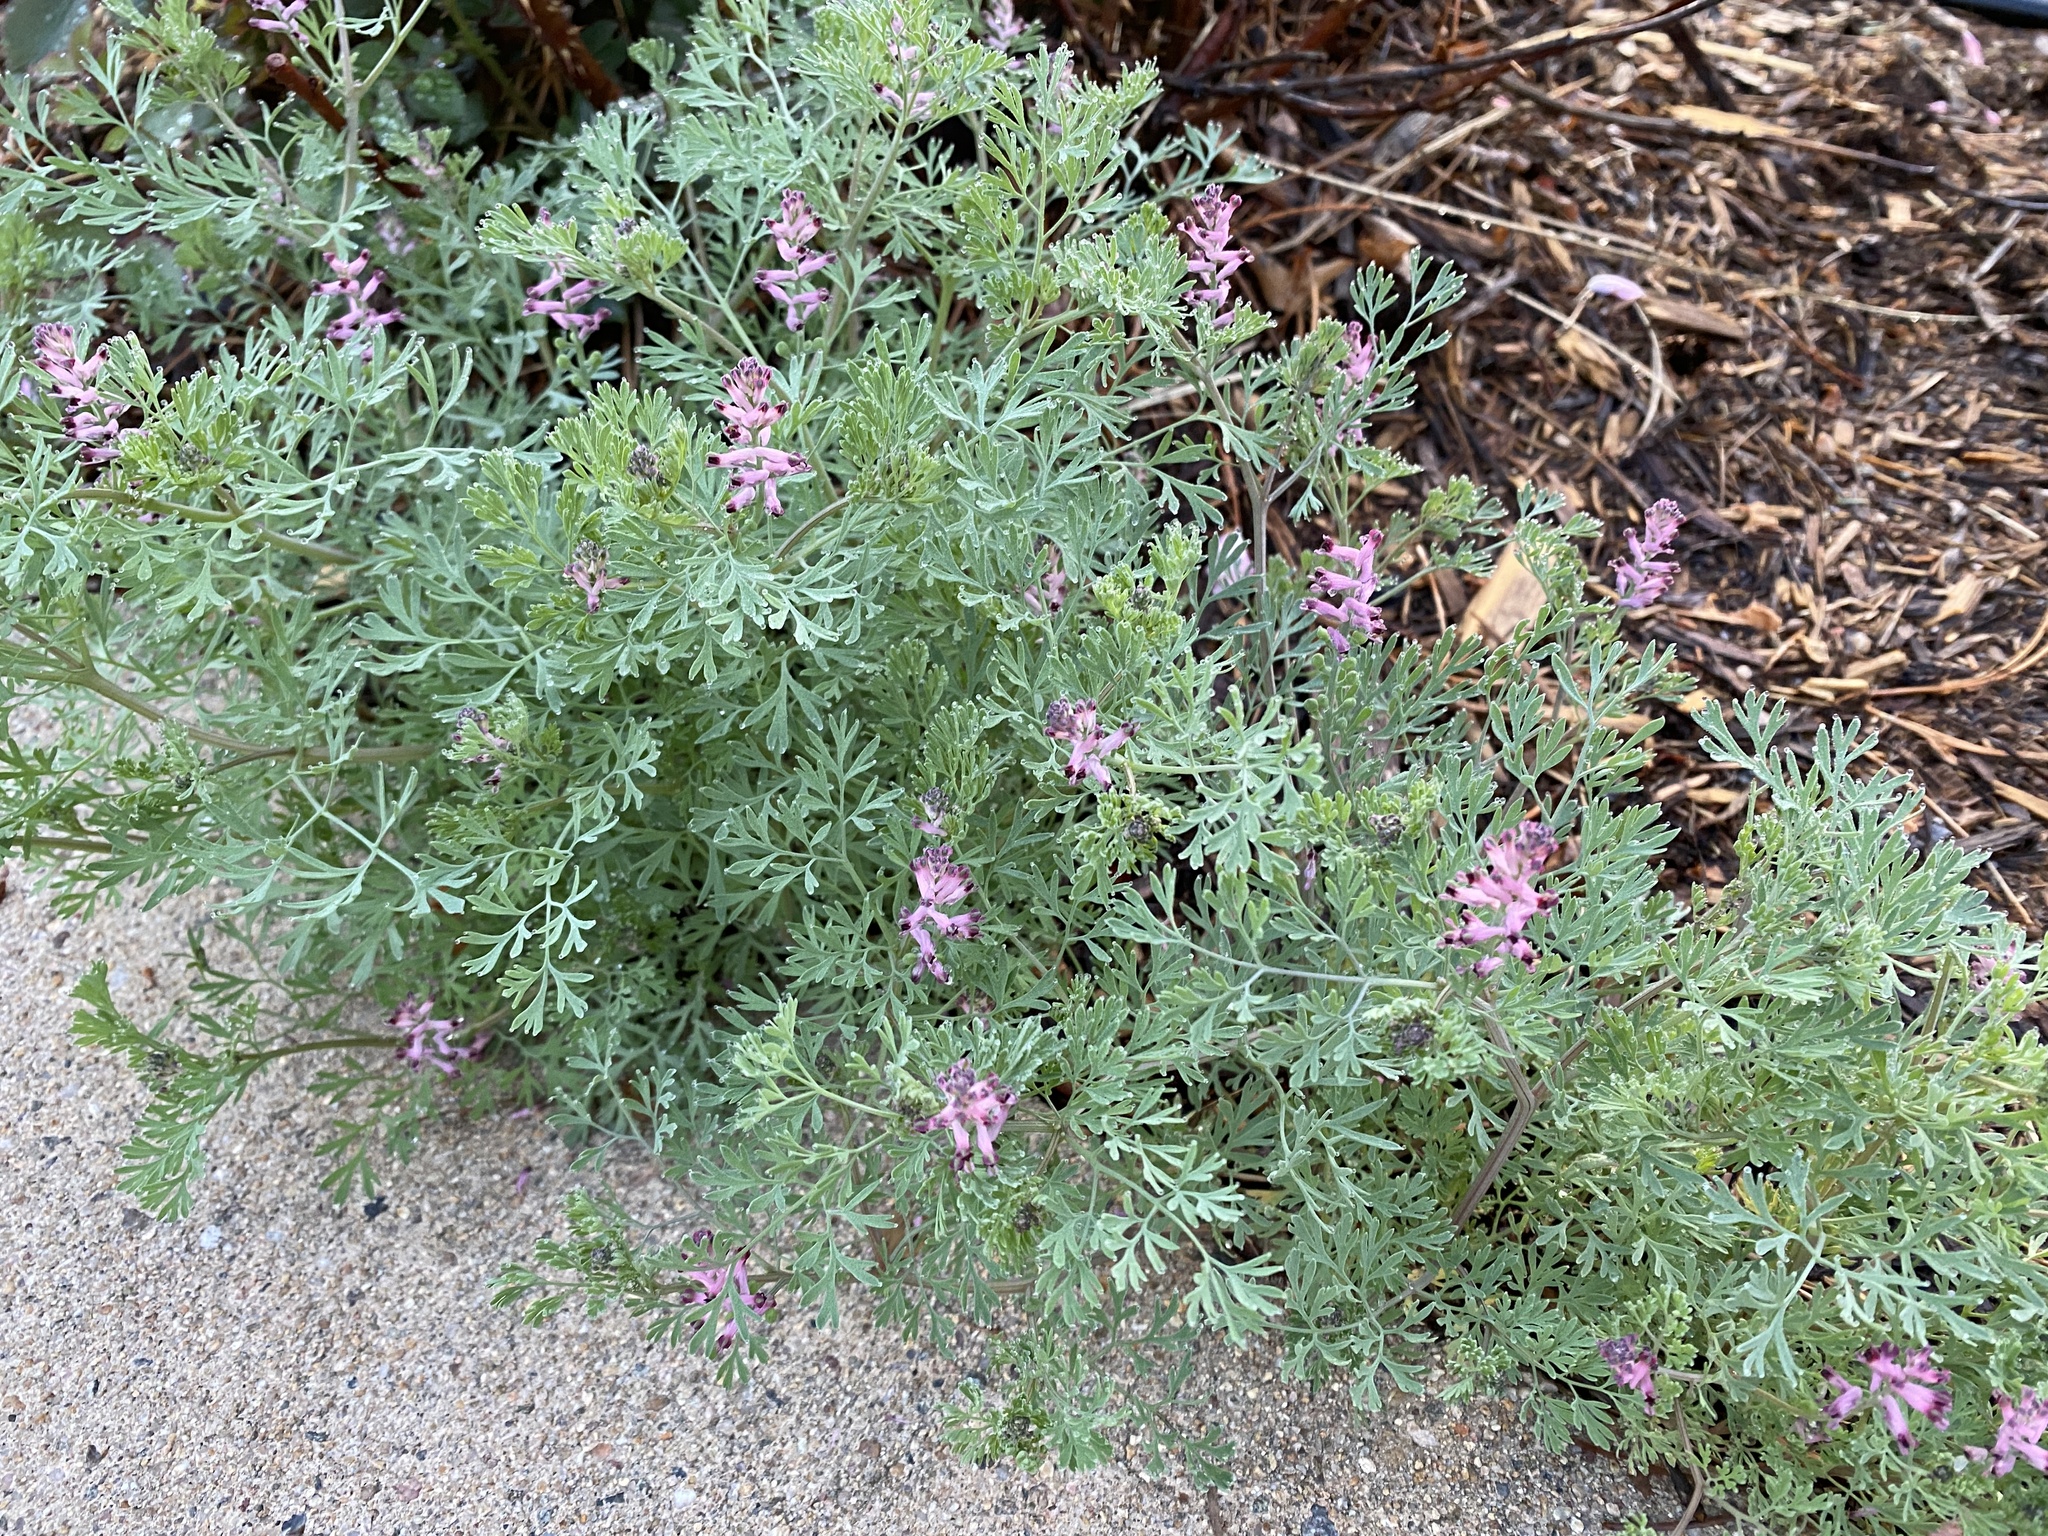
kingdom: Plantae
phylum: Tracheophyta
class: Magnoliopsida
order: Ranunculales
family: Papaveraceae
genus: Fumaria
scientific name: Fumaria vaillantii
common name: Few-flowered fumitory
